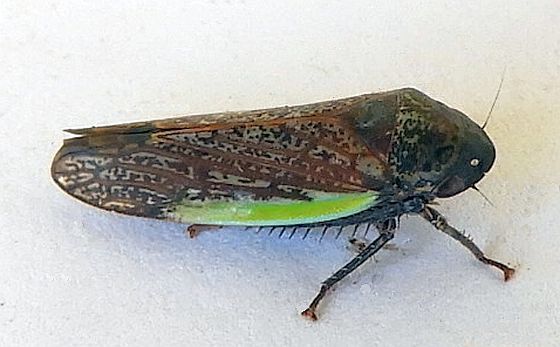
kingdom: Animalia
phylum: Arthropoda
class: Insecta
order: Hemiptera
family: Cicadellidae
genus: Hamana
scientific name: Hamana gelbata
